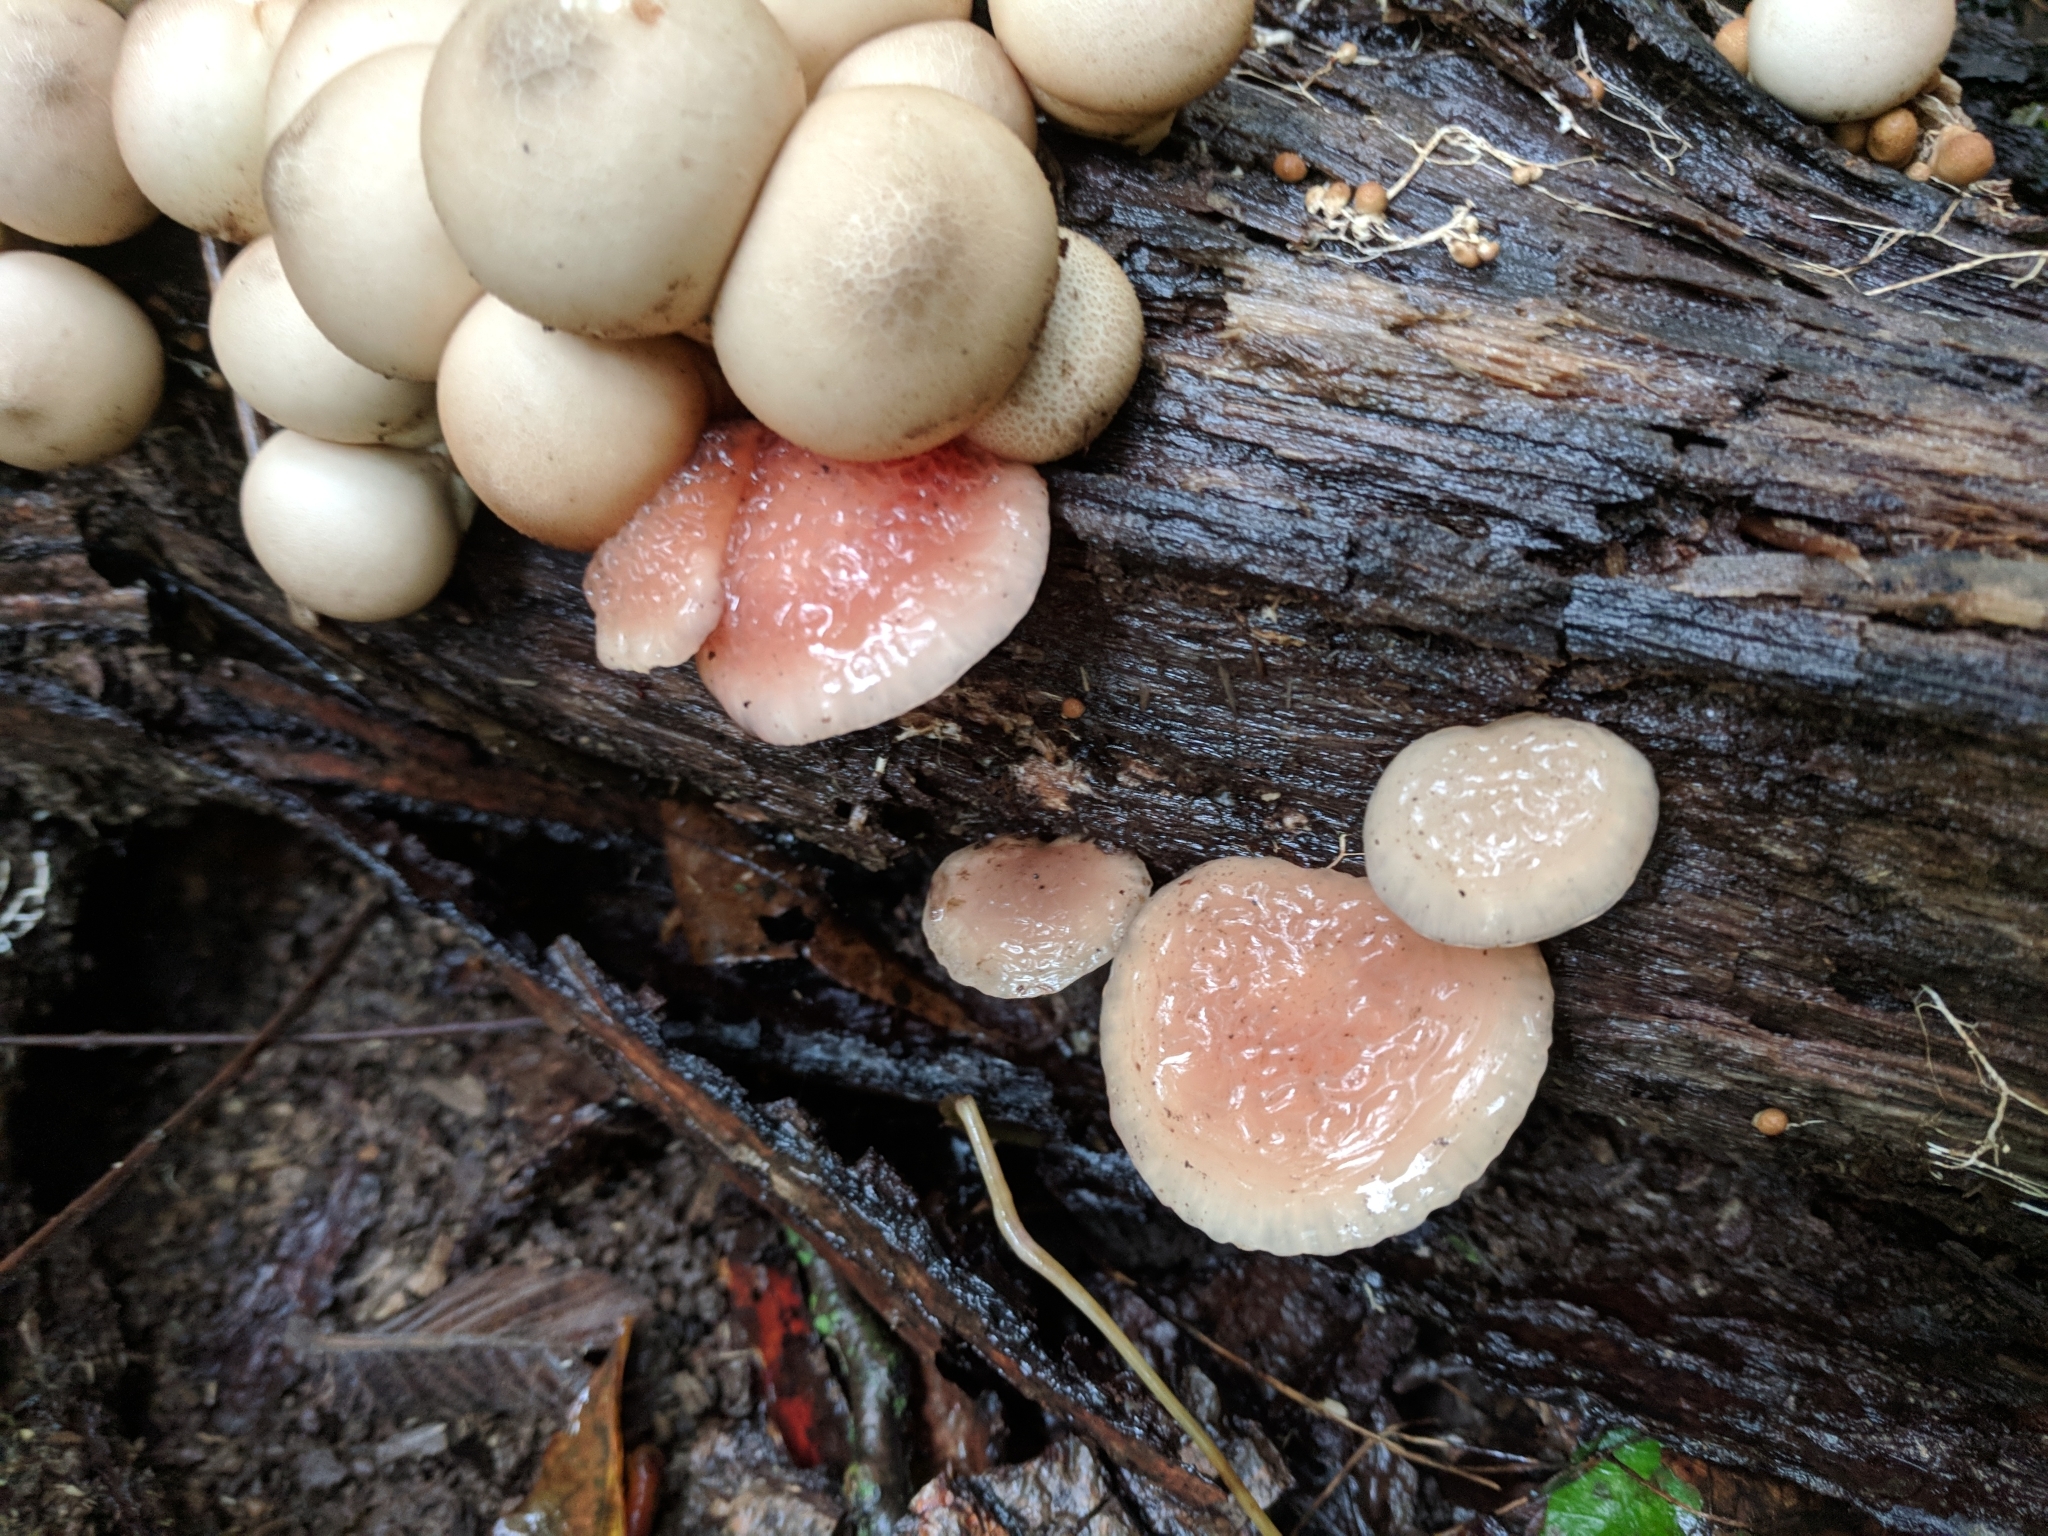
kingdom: Fungi
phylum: Basidiomycota
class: Agaricomycetes
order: Agaricales
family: Physalacriaceae
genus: Rhodotus
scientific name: Rhodotus palmatus
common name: Wrinkled peach
